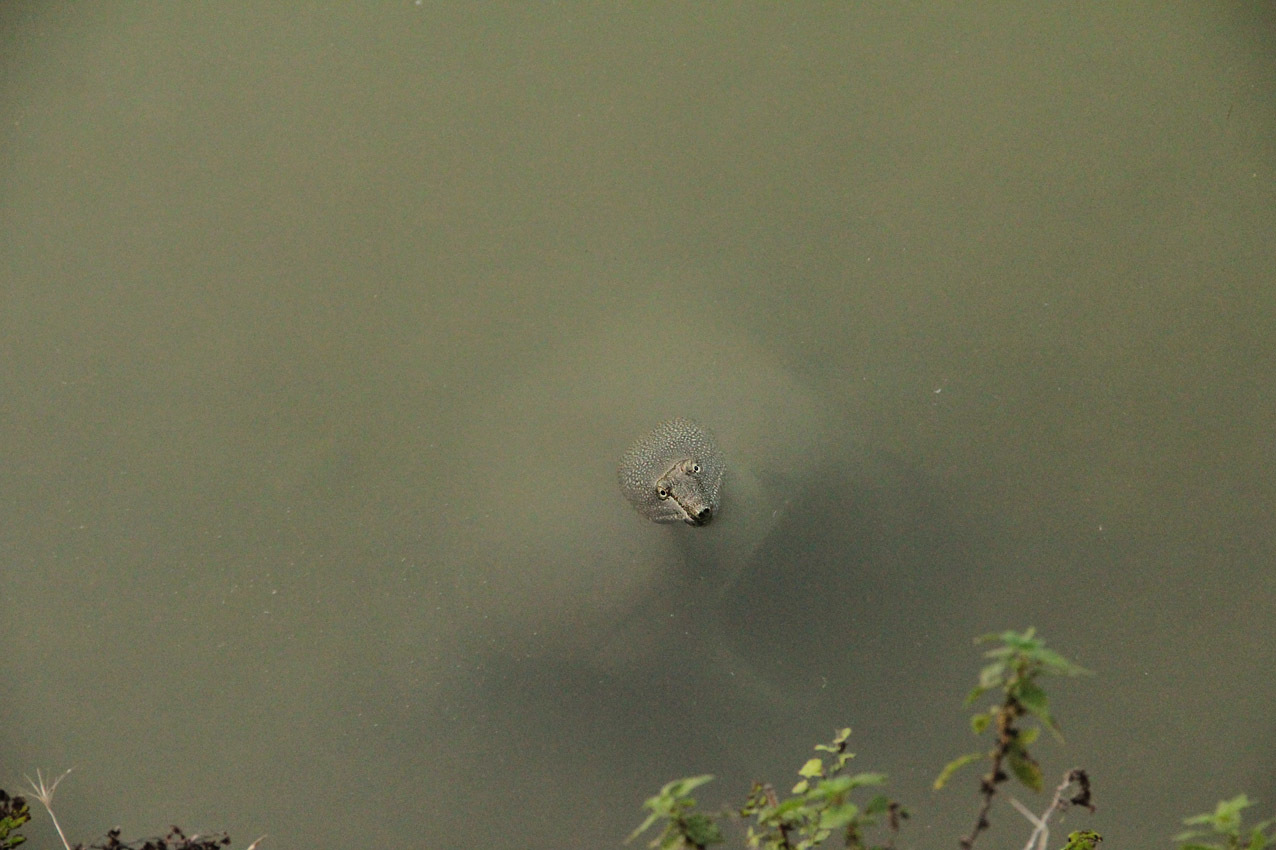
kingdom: Animalia
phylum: Chordata
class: Testudines
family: Trionychidae
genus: Pelodiscus
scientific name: Pelodiscus sinensis
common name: Chinese softshell turtle
